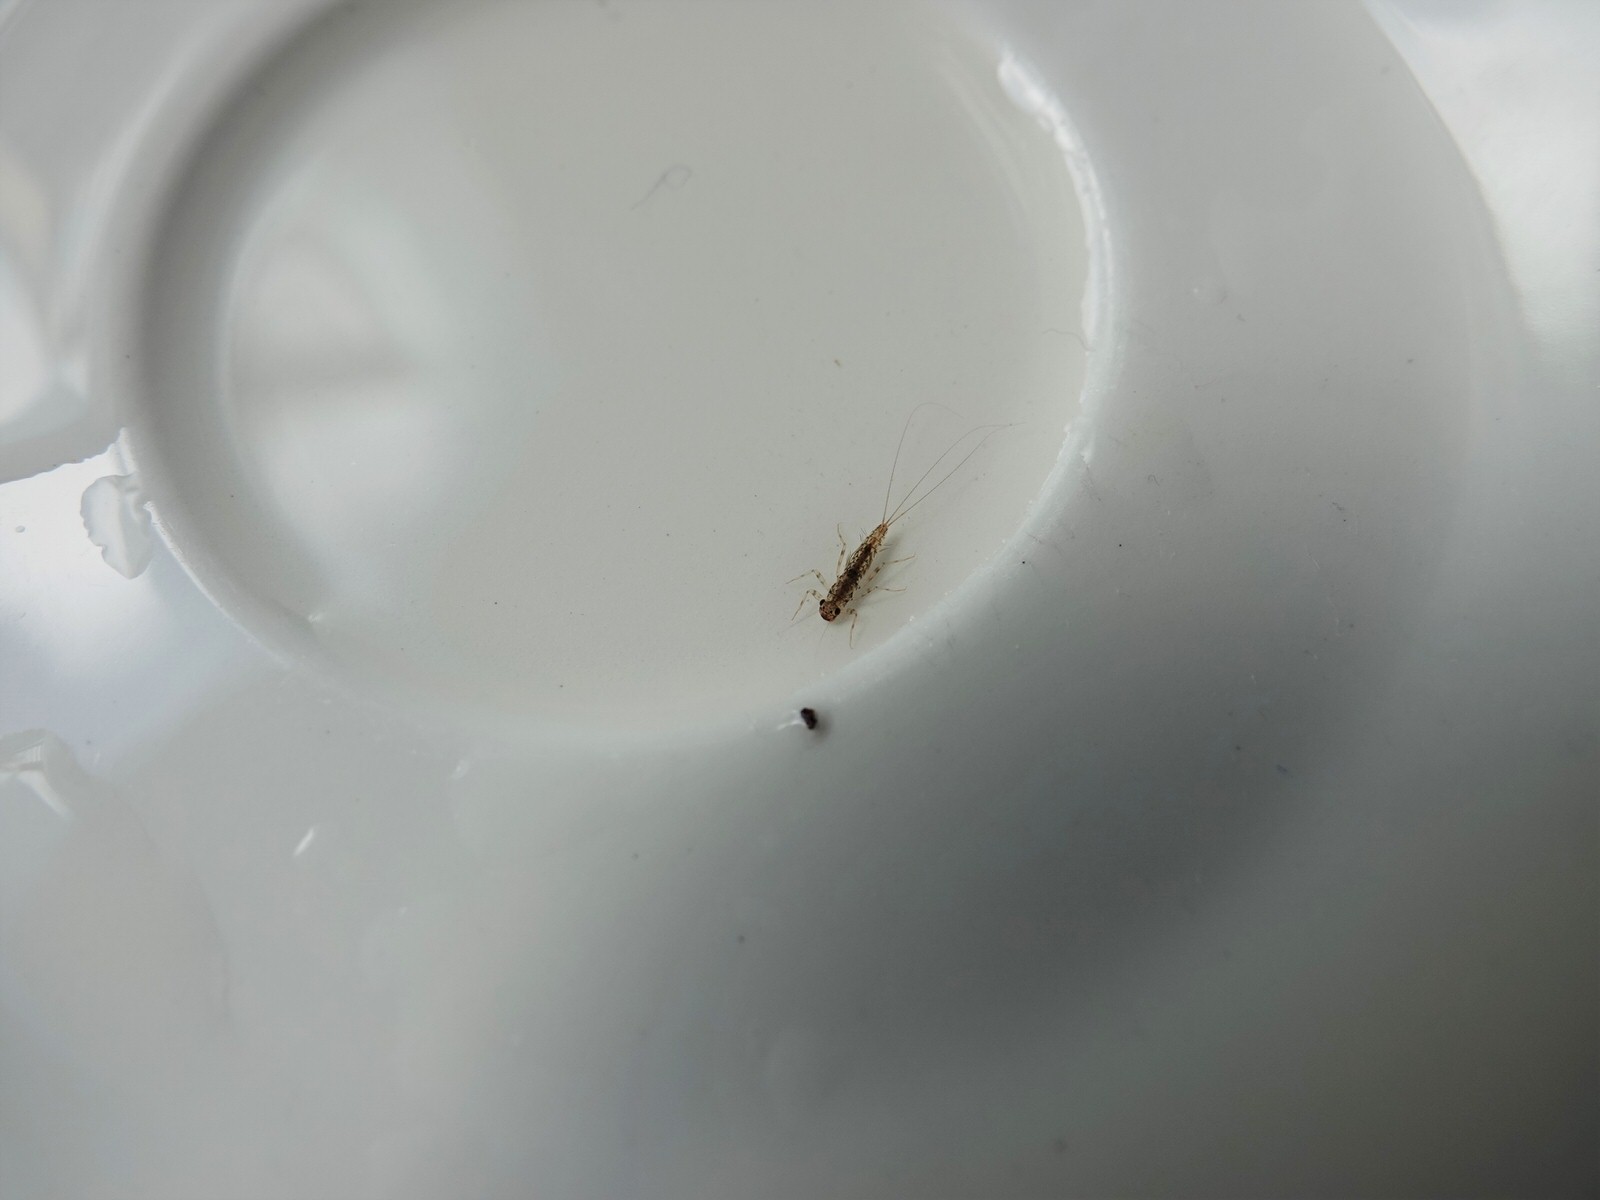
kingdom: Animalia
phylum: Arthropoda
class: Insecta
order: Ephemeroptera
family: Leptophlebiidae
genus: Tepakia
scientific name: Tepakia caligata
